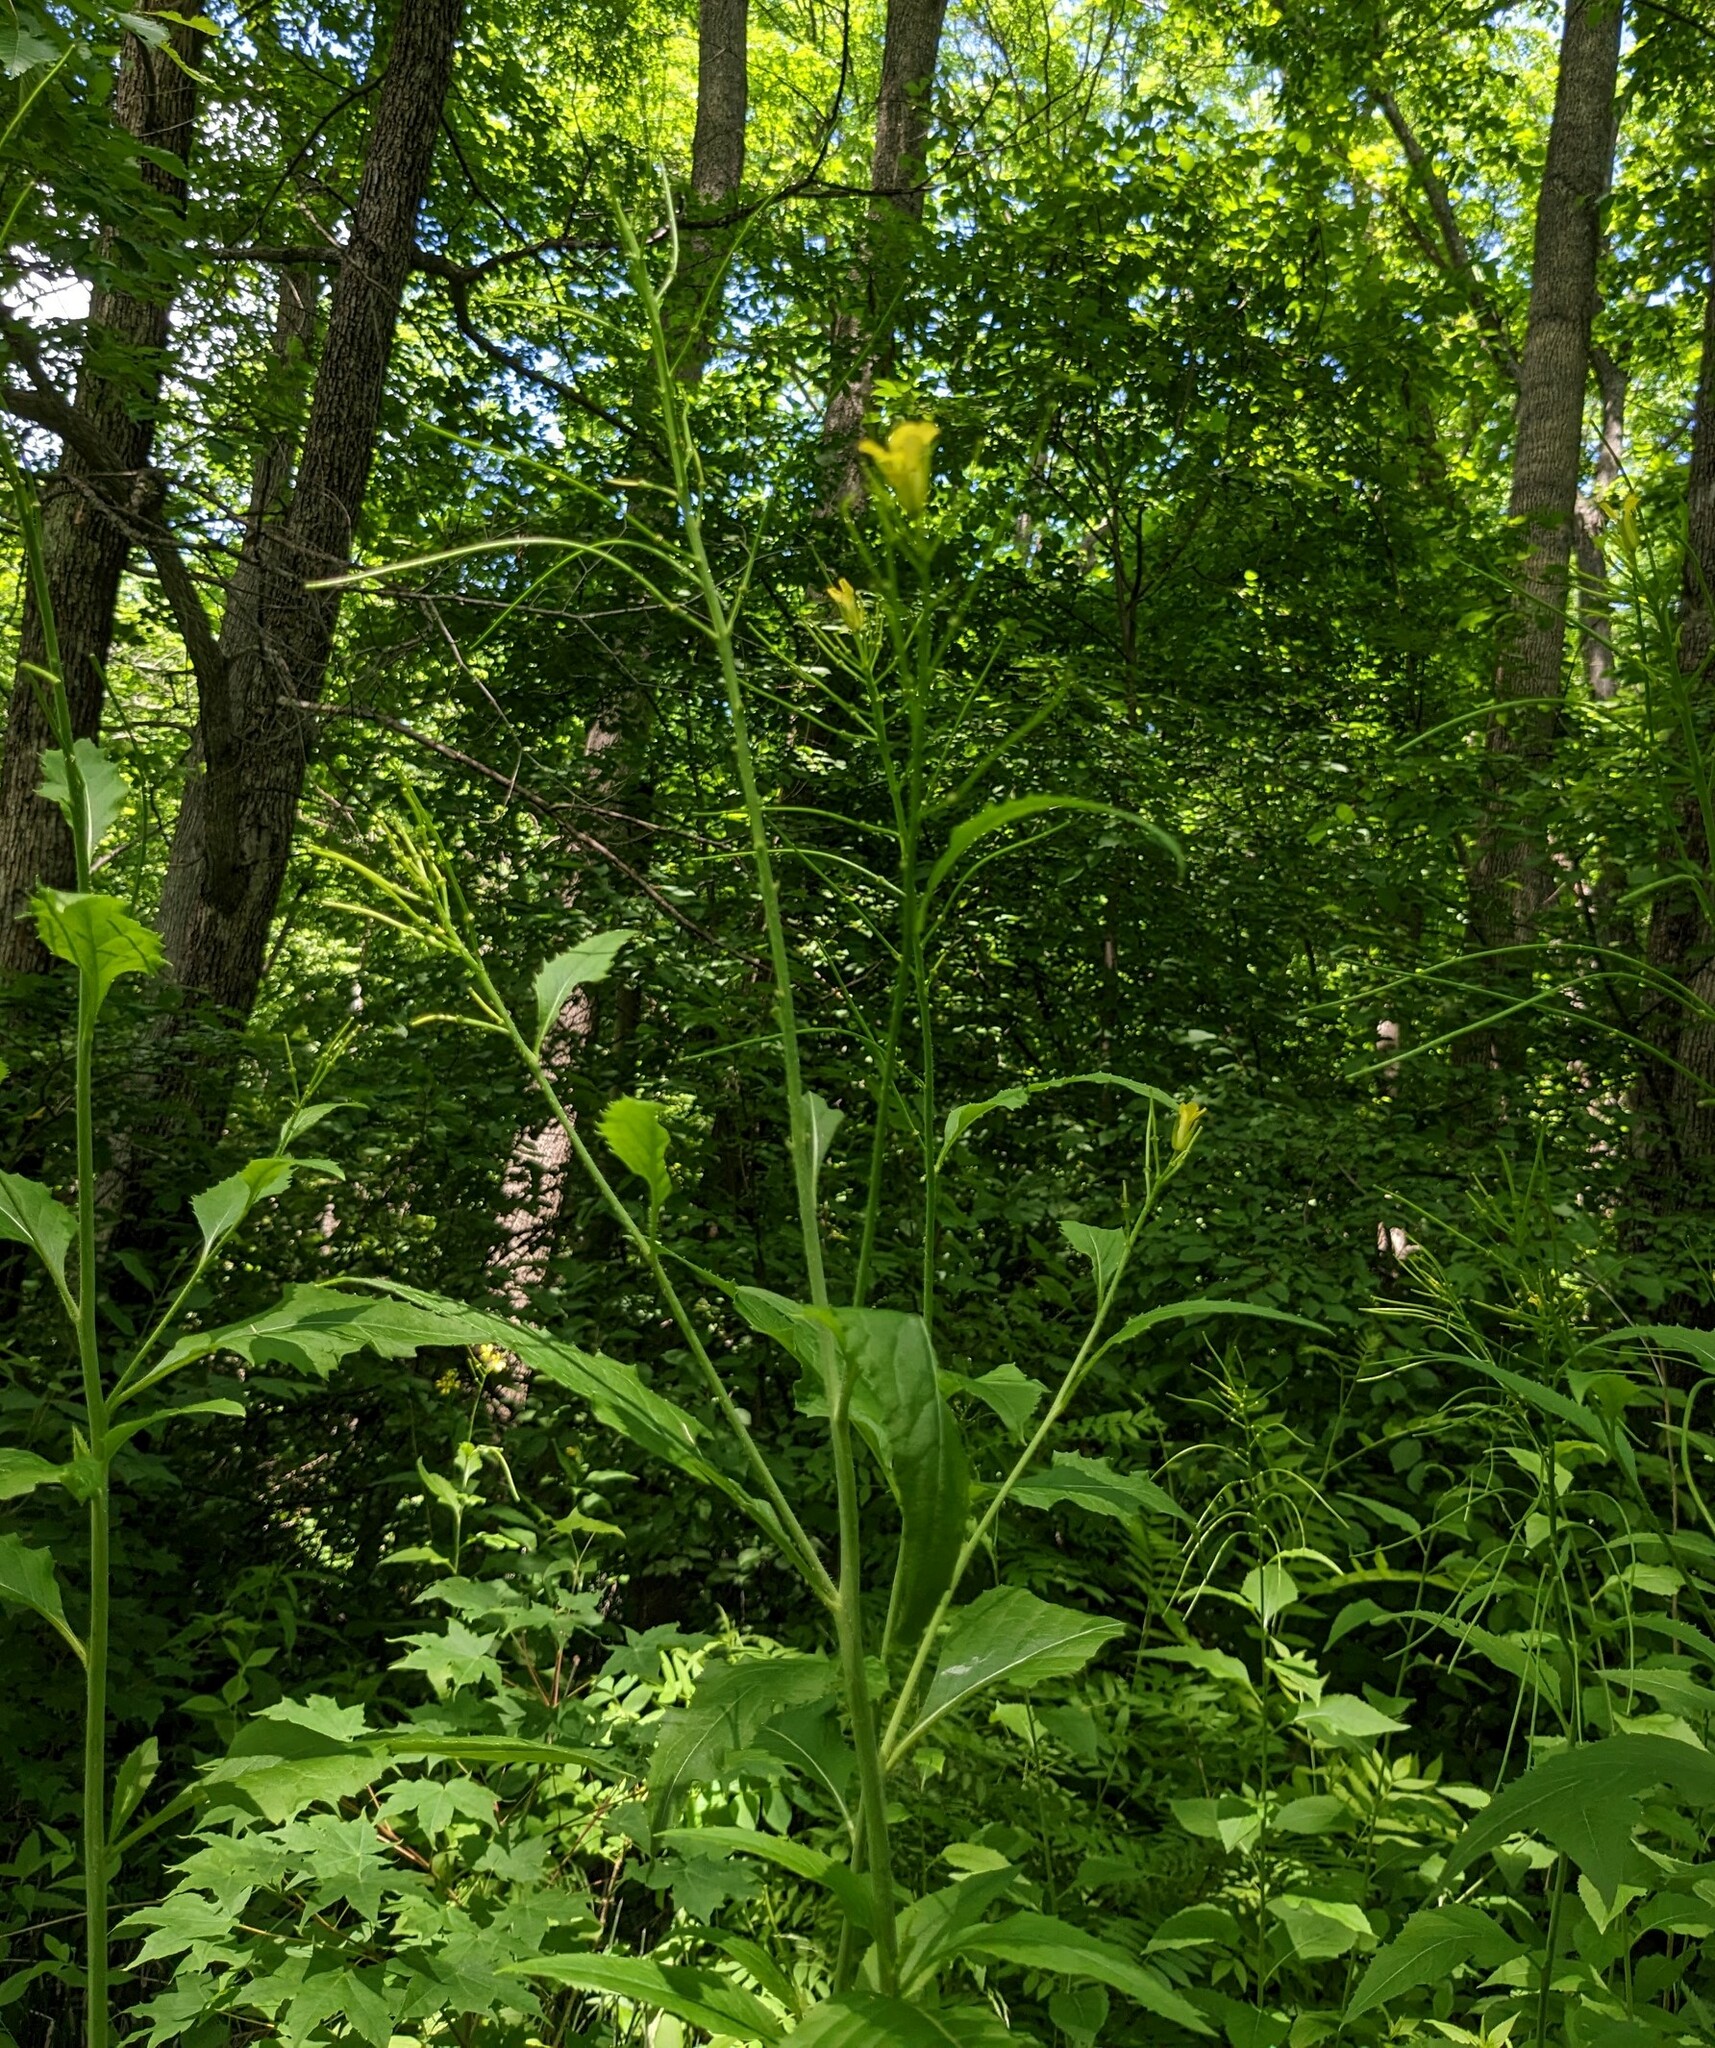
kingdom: Plantae
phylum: Tracheophyta
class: Magnoliopsida
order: Brassicales
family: Brassicaceae
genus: Sisymbrium
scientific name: Sisymbrium luteum
